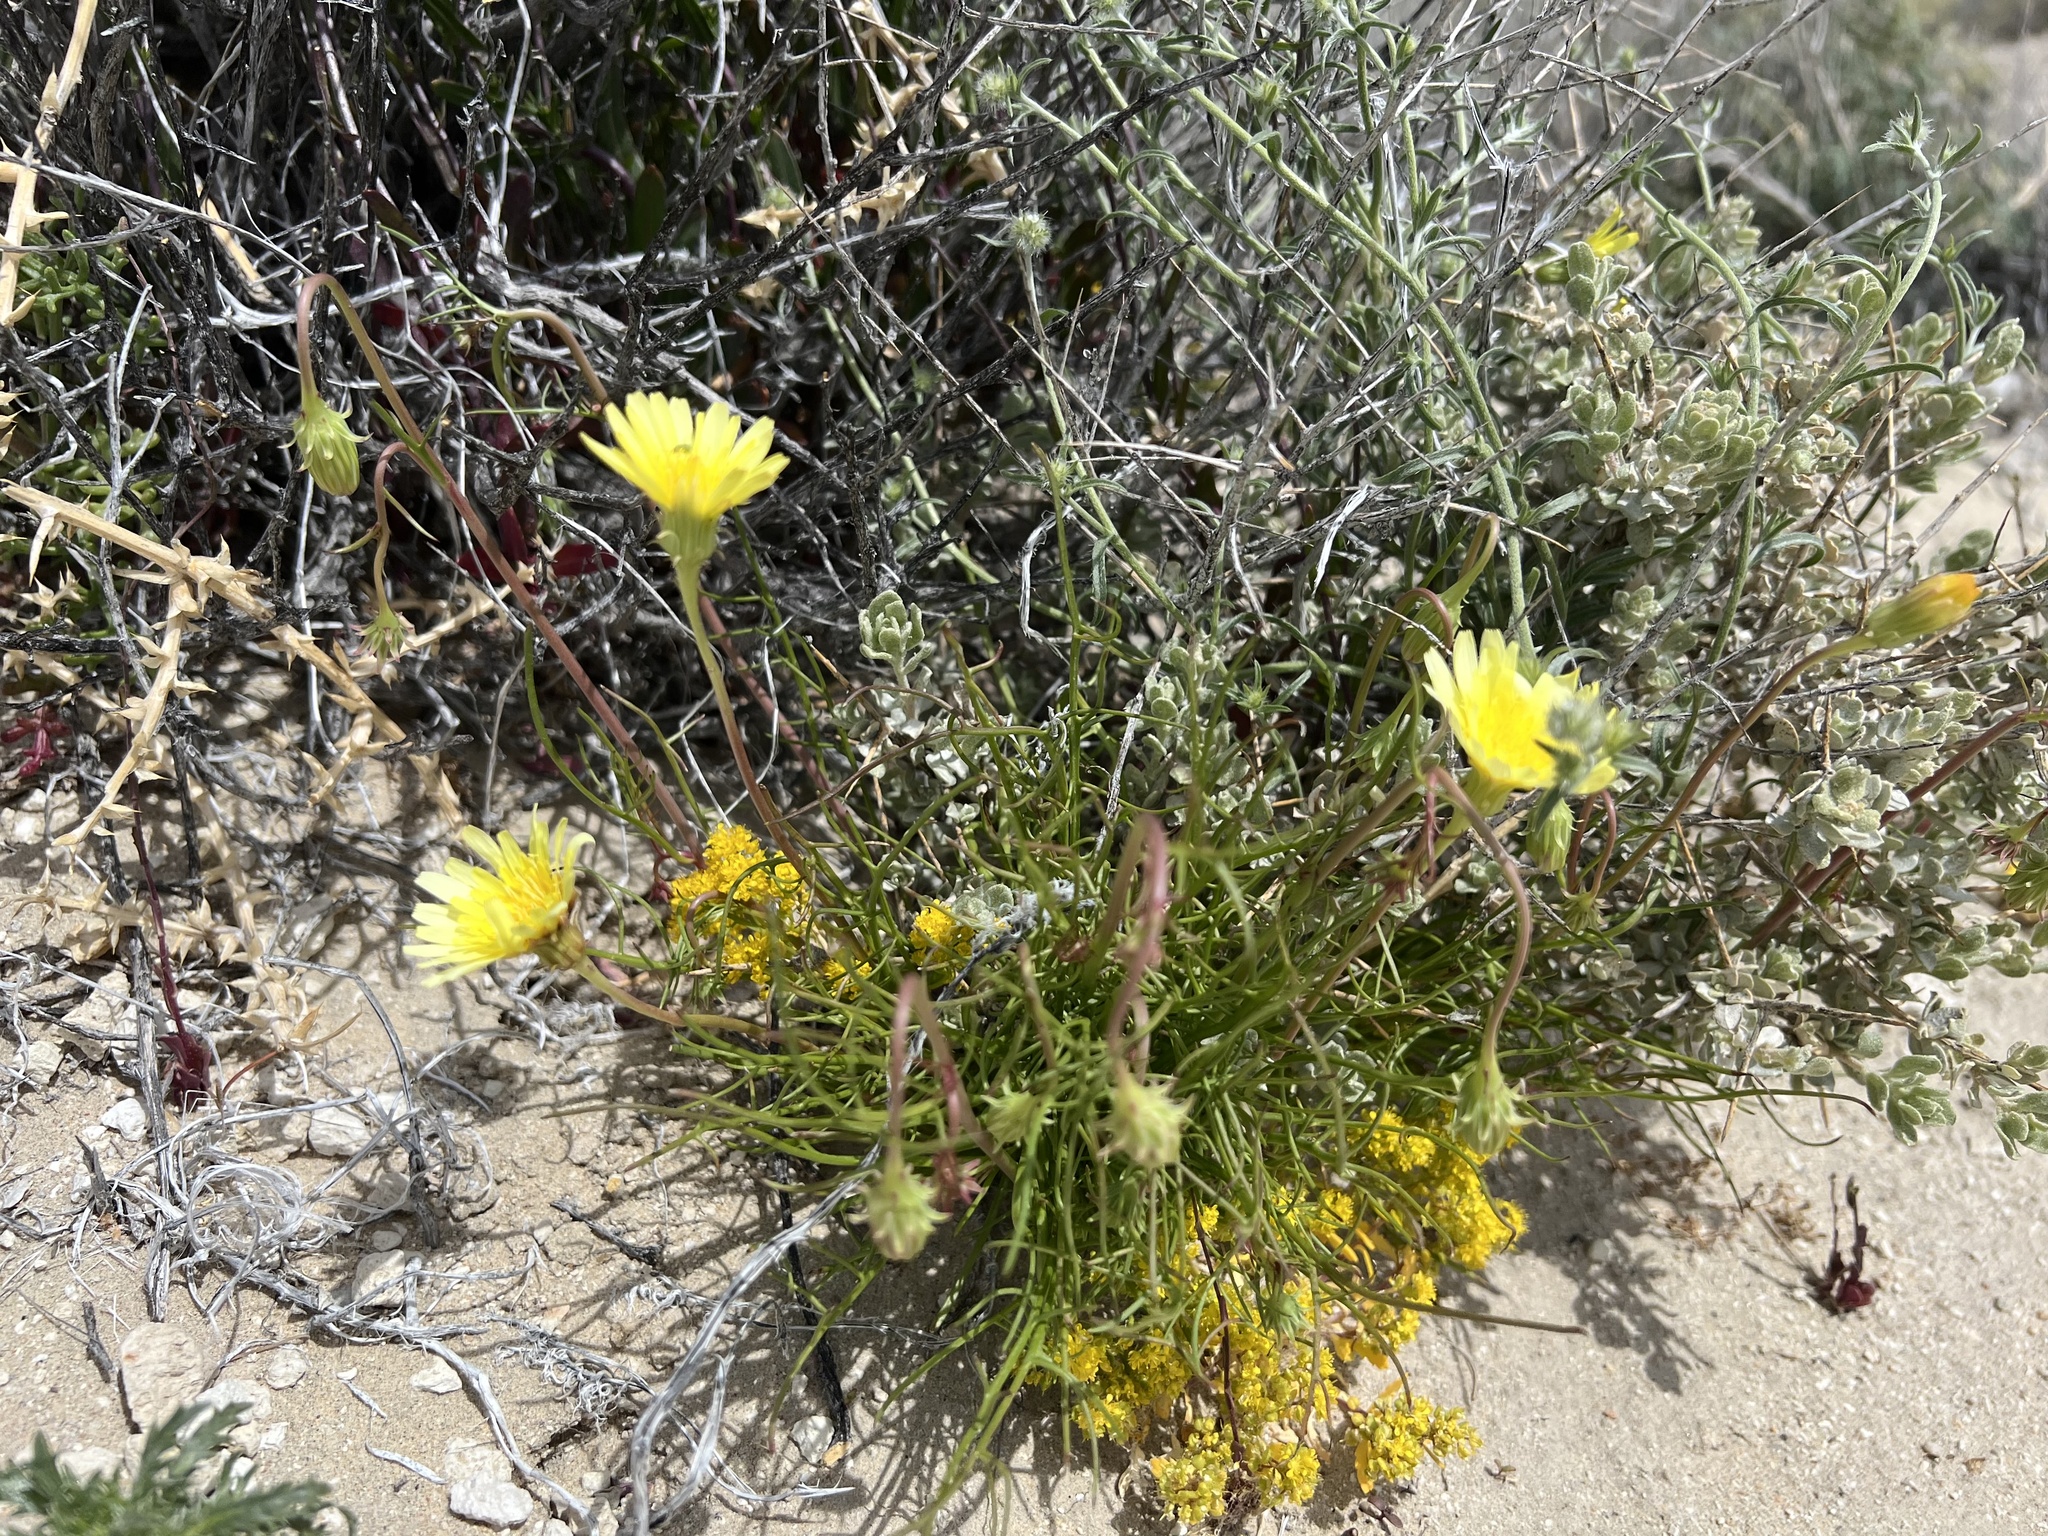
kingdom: Plantae
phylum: Tracheophyta
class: Magnoliopsida
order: Asterales
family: Asteraceae
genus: Malacothrix
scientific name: Malacothrix glabrata
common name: Smooth desert-dandelion
